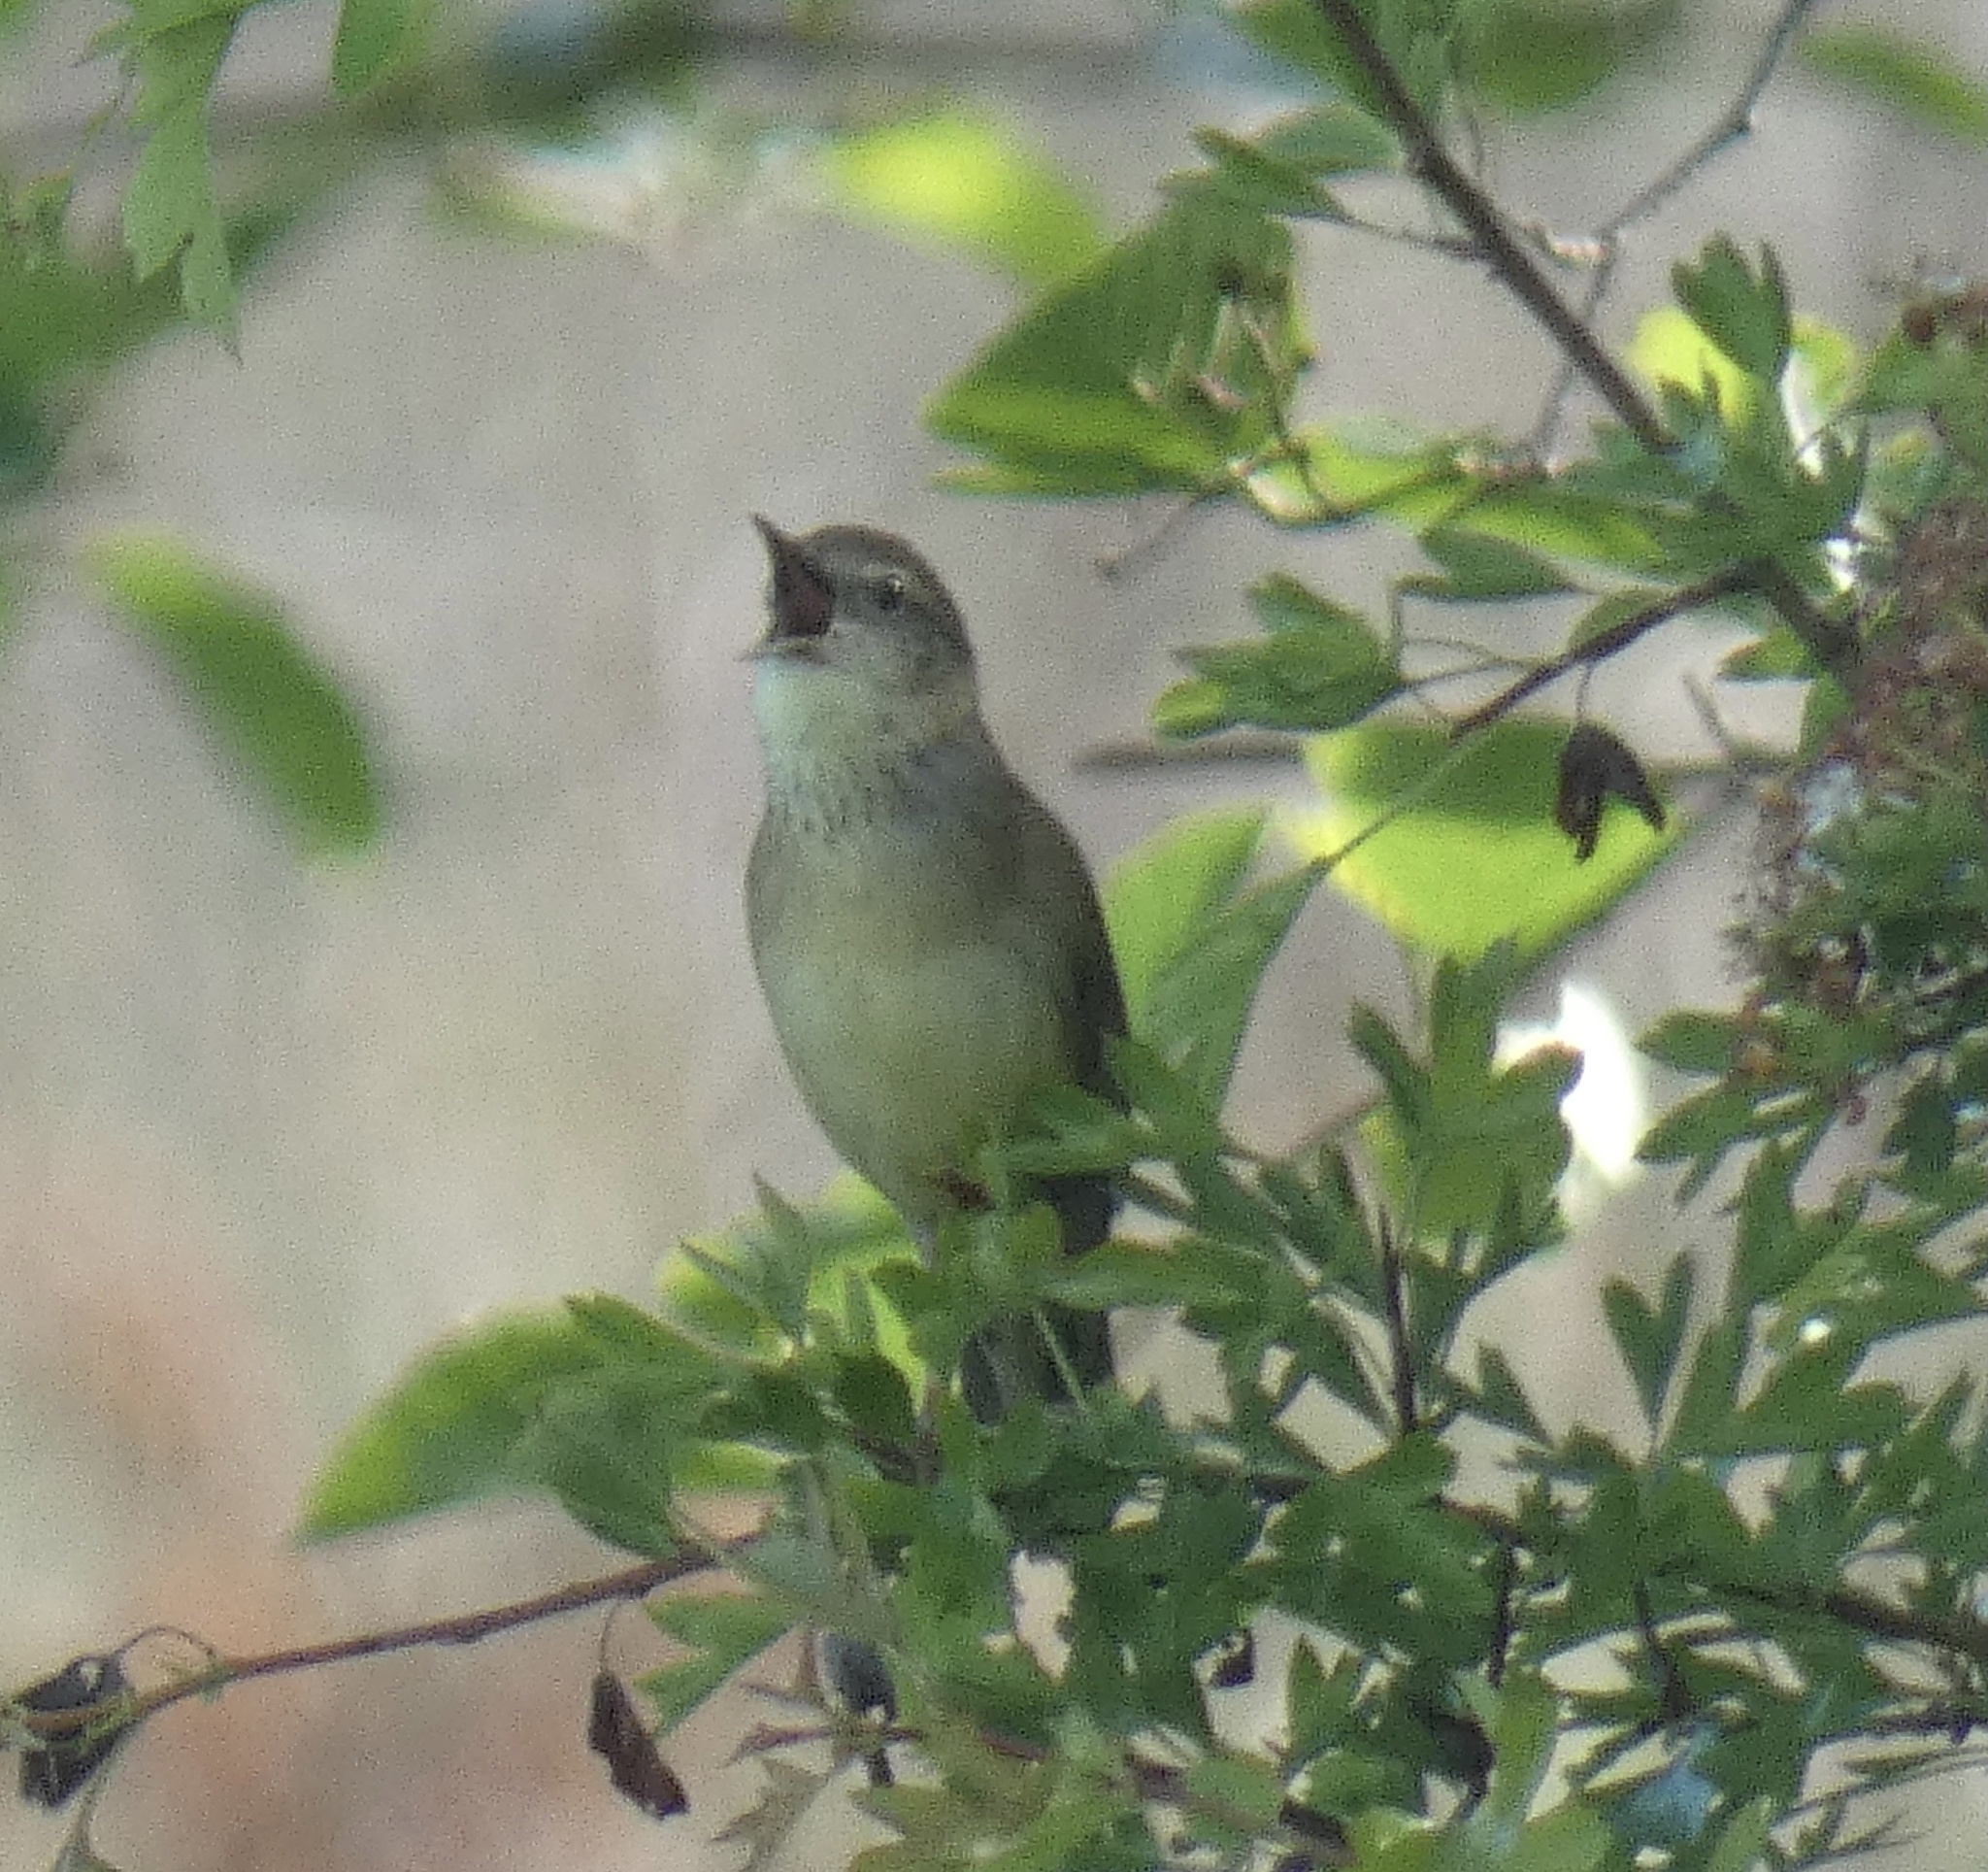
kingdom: Animalia
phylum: Chordata
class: Aves
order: Passeriformes
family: Locustellidae
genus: Locustella
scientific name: Locustella naevia
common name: Common grasshopper warbler
